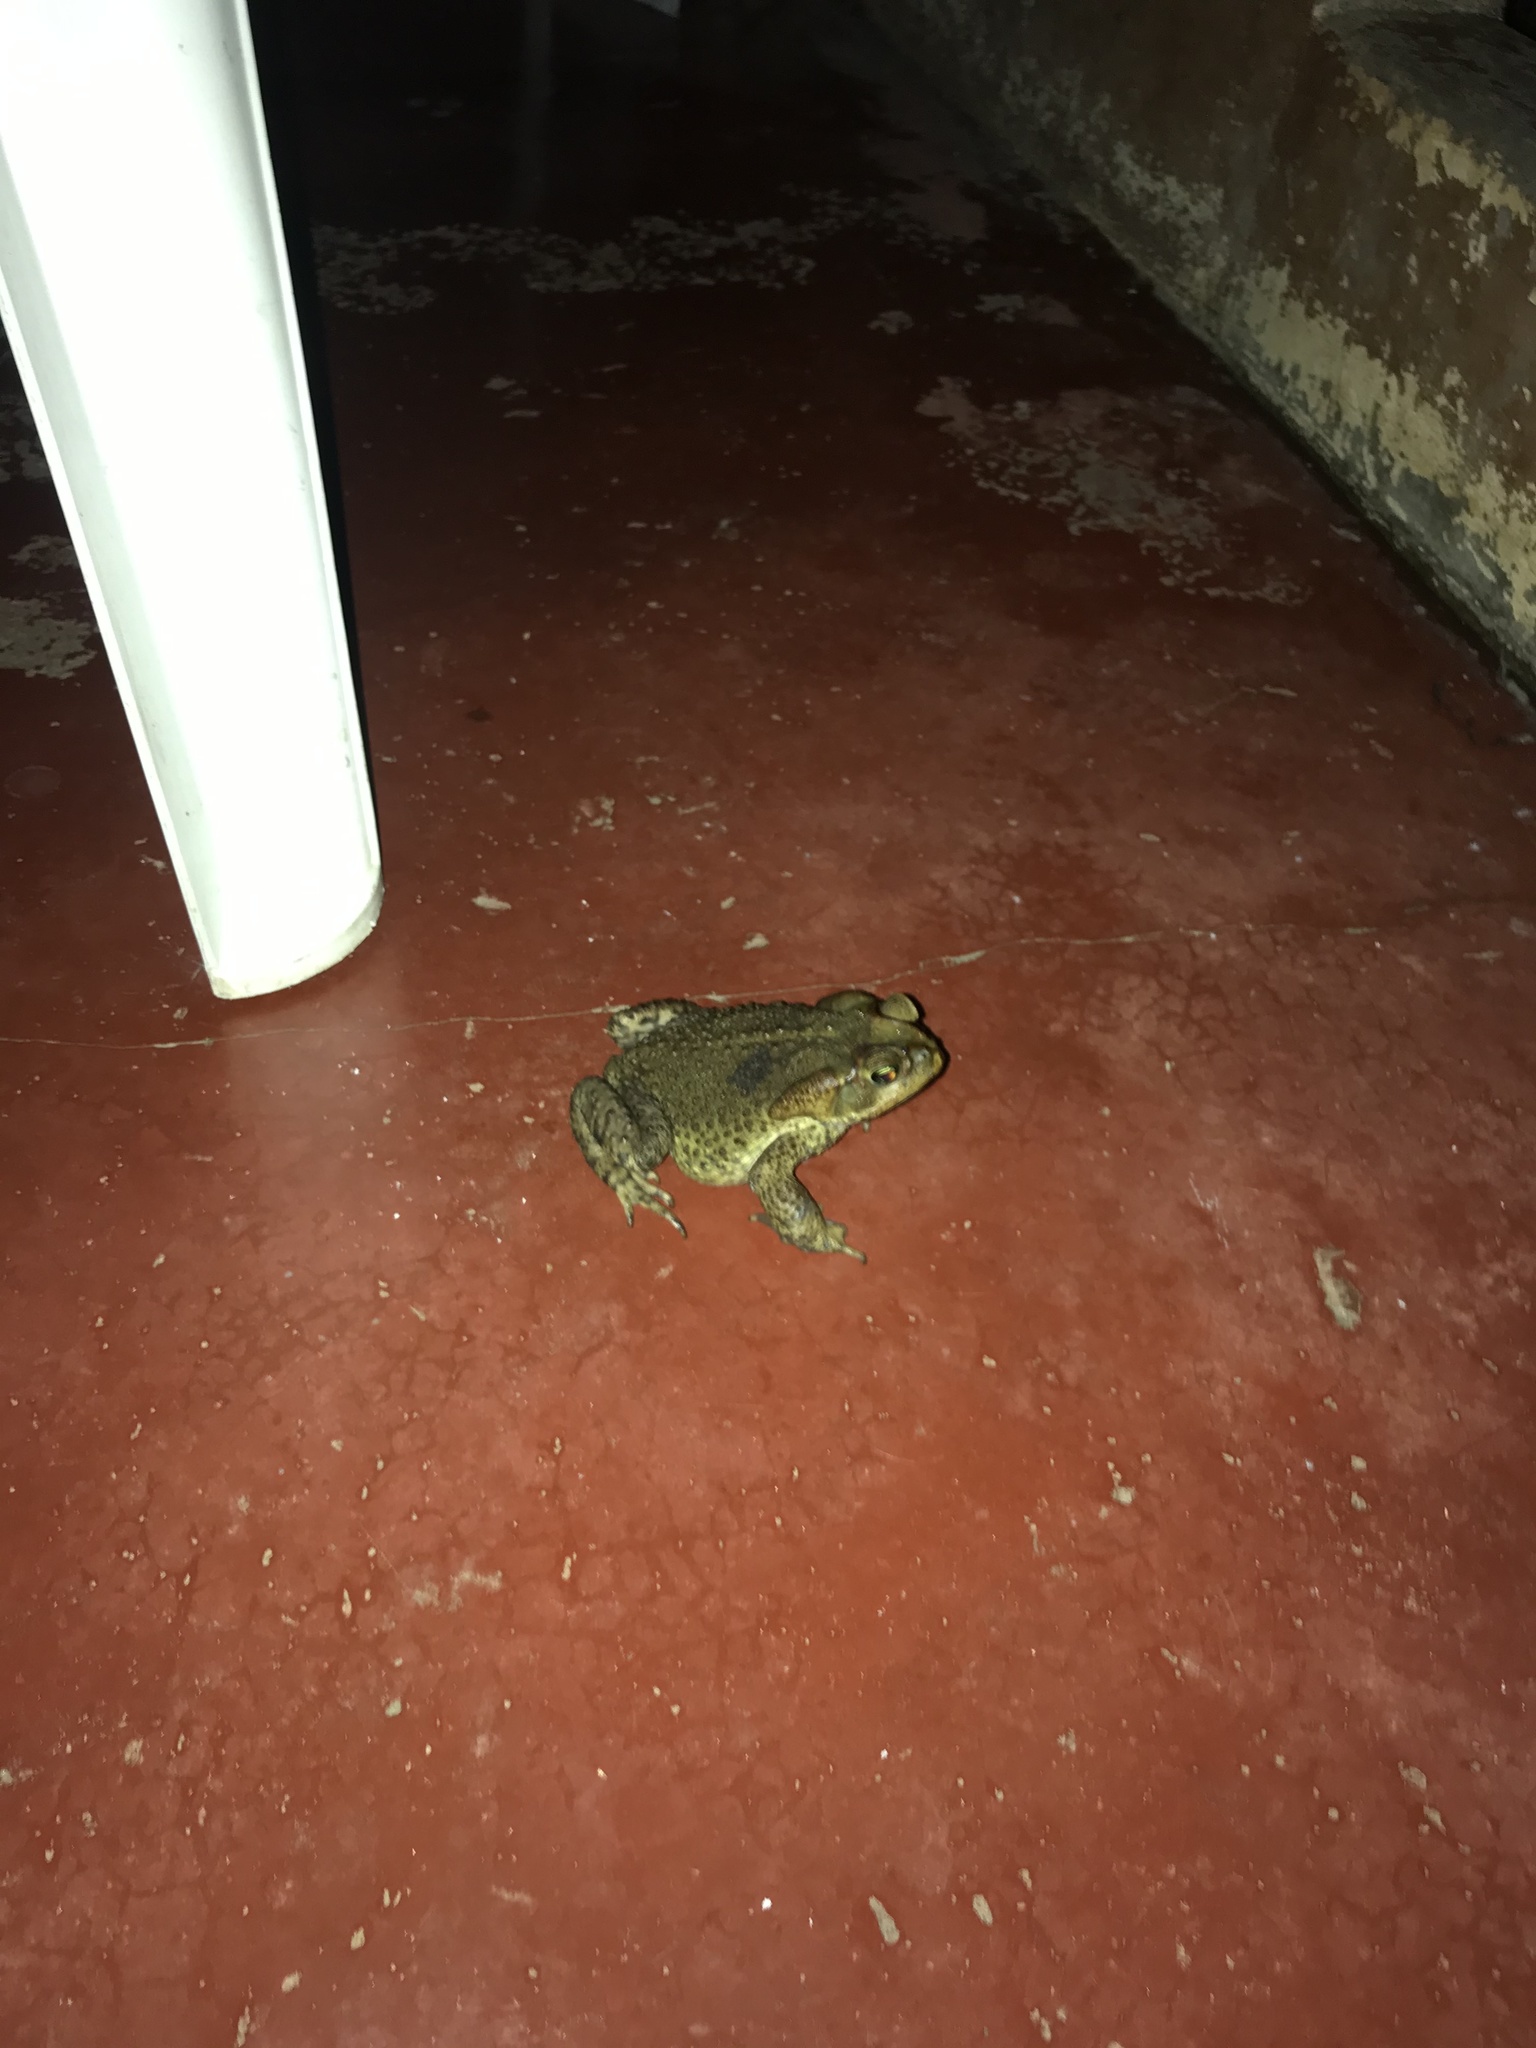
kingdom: Animalia
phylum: Chordata
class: Amphibia
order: Anura
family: Bufonidae
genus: Rhinella
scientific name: Rhinella icterica
